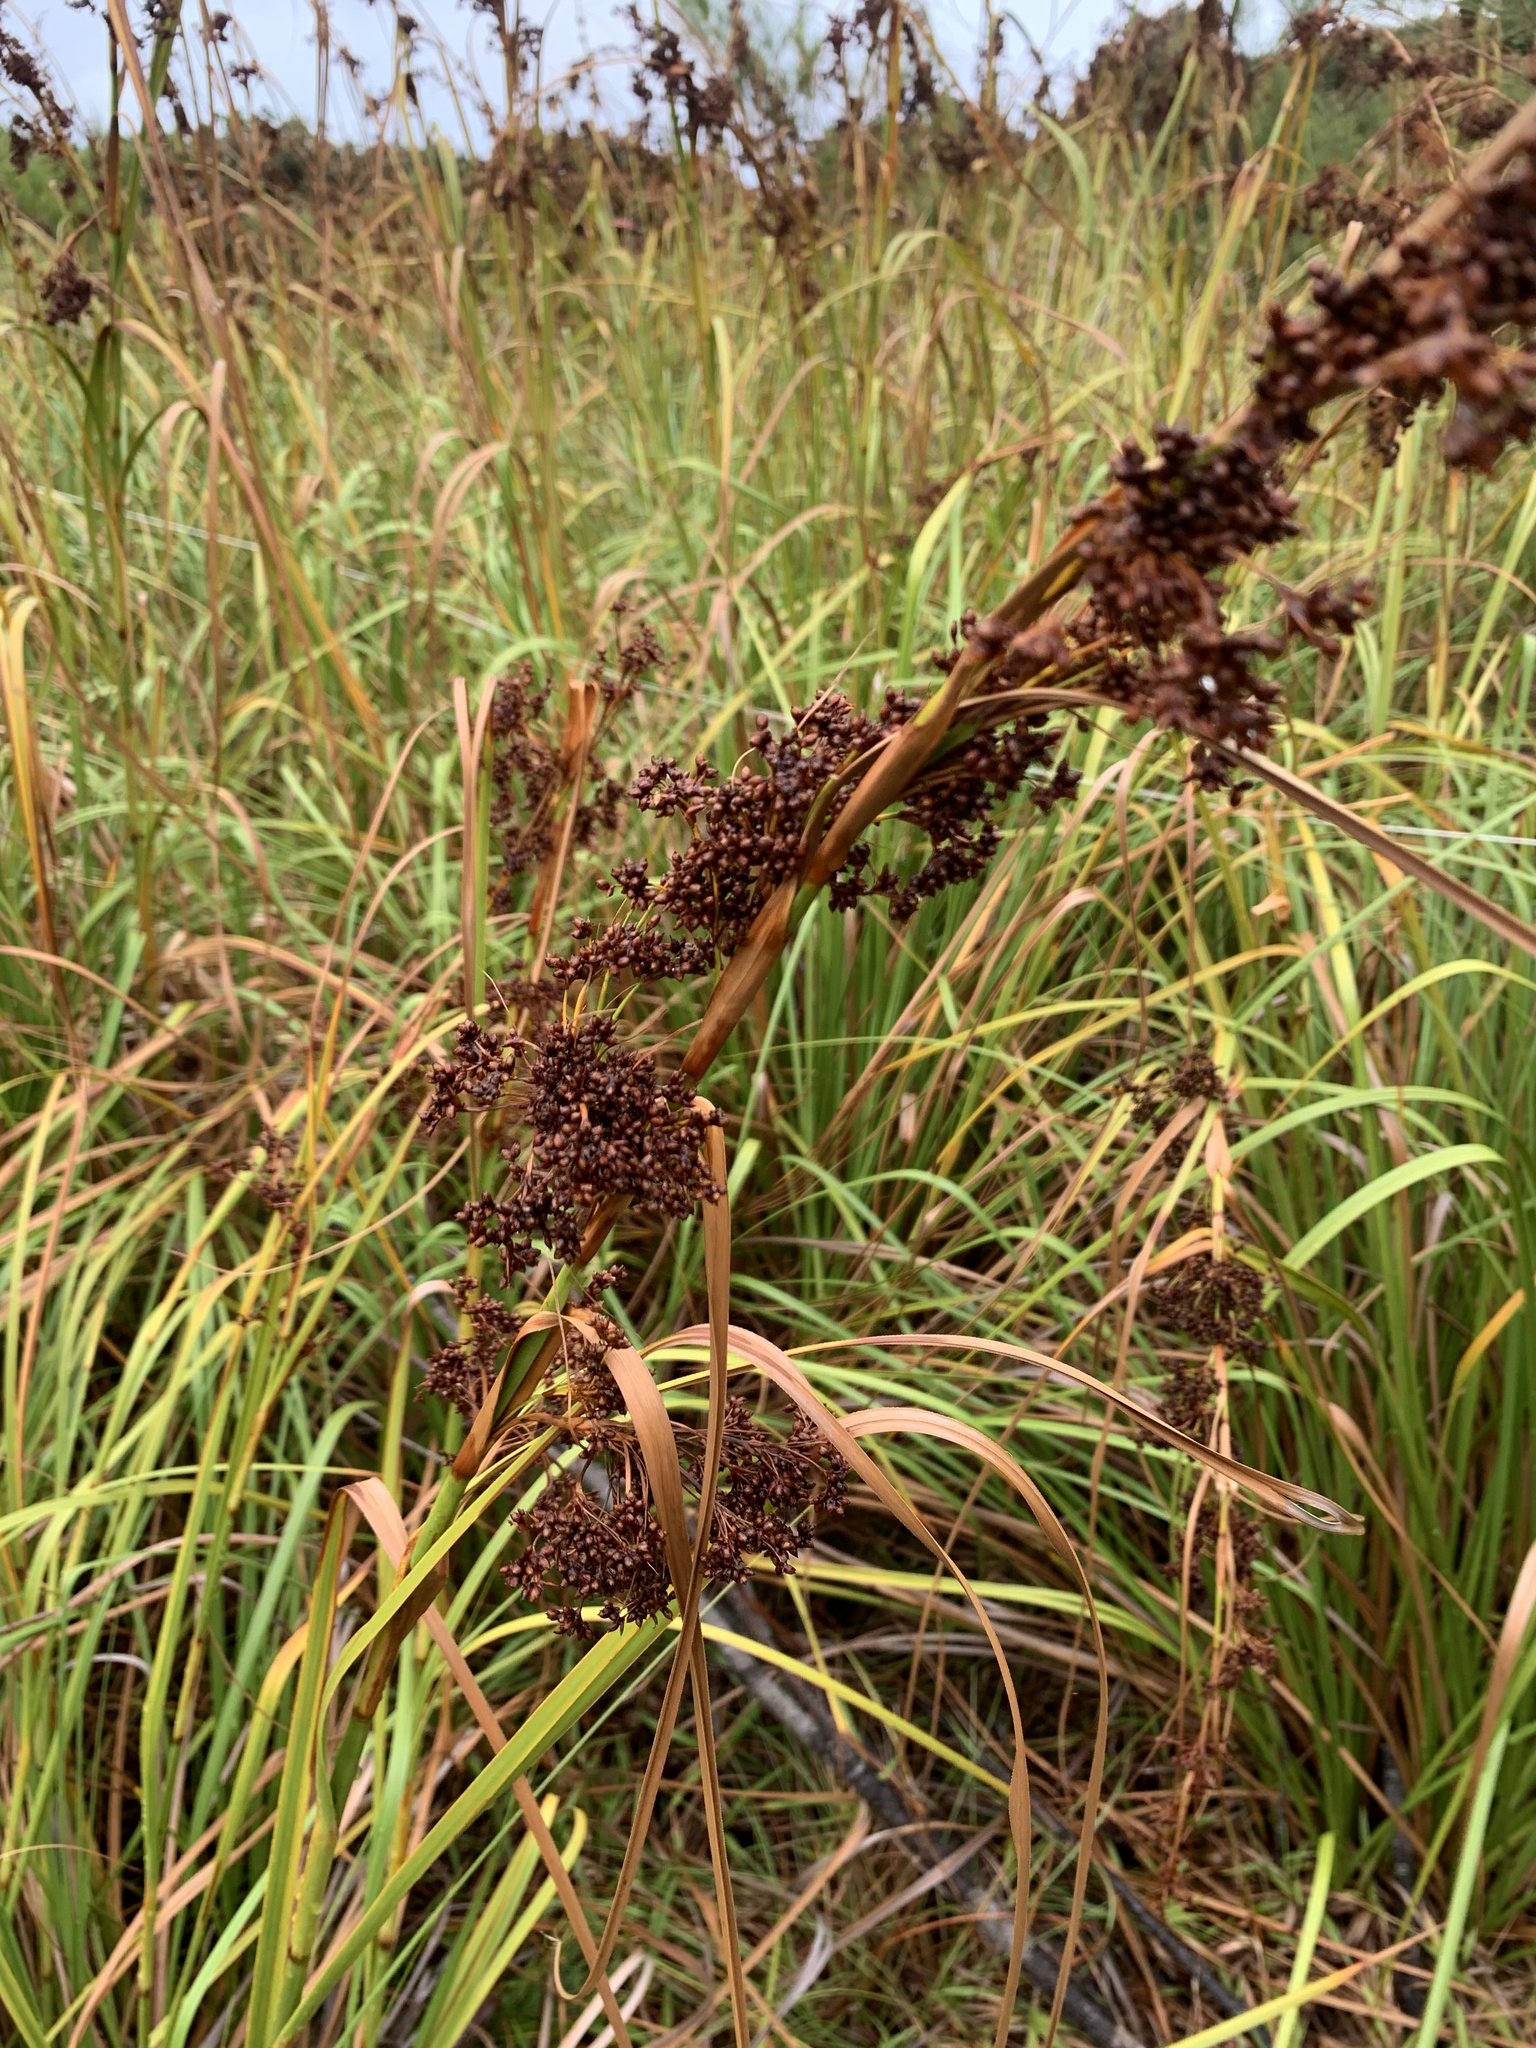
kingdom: Plantae
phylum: Tracheophyta
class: Liliopsida
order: Poales
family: Cyperaceae
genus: Cladium
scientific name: Cladium mariscus
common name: Great fen-sedge
